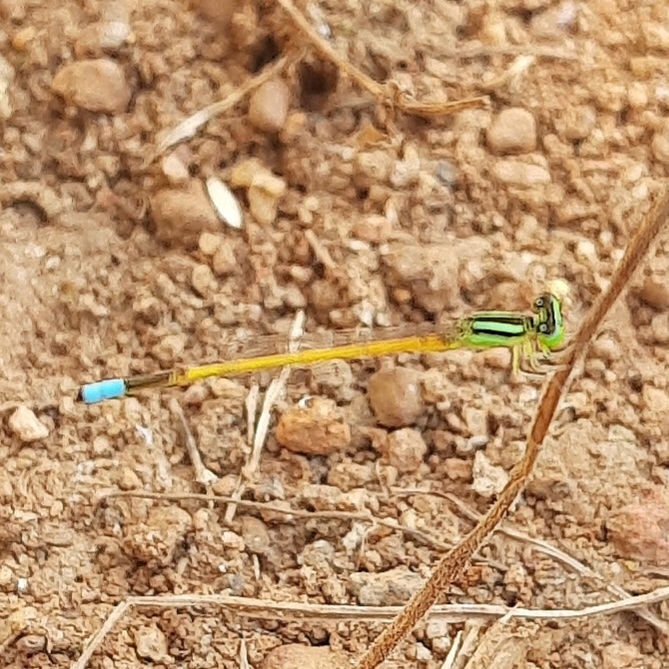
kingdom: Animalia
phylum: Arthropoda
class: Insecta
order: Odonata
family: Coenagrionidae
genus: Ischnura
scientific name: Ischnura rubilio
